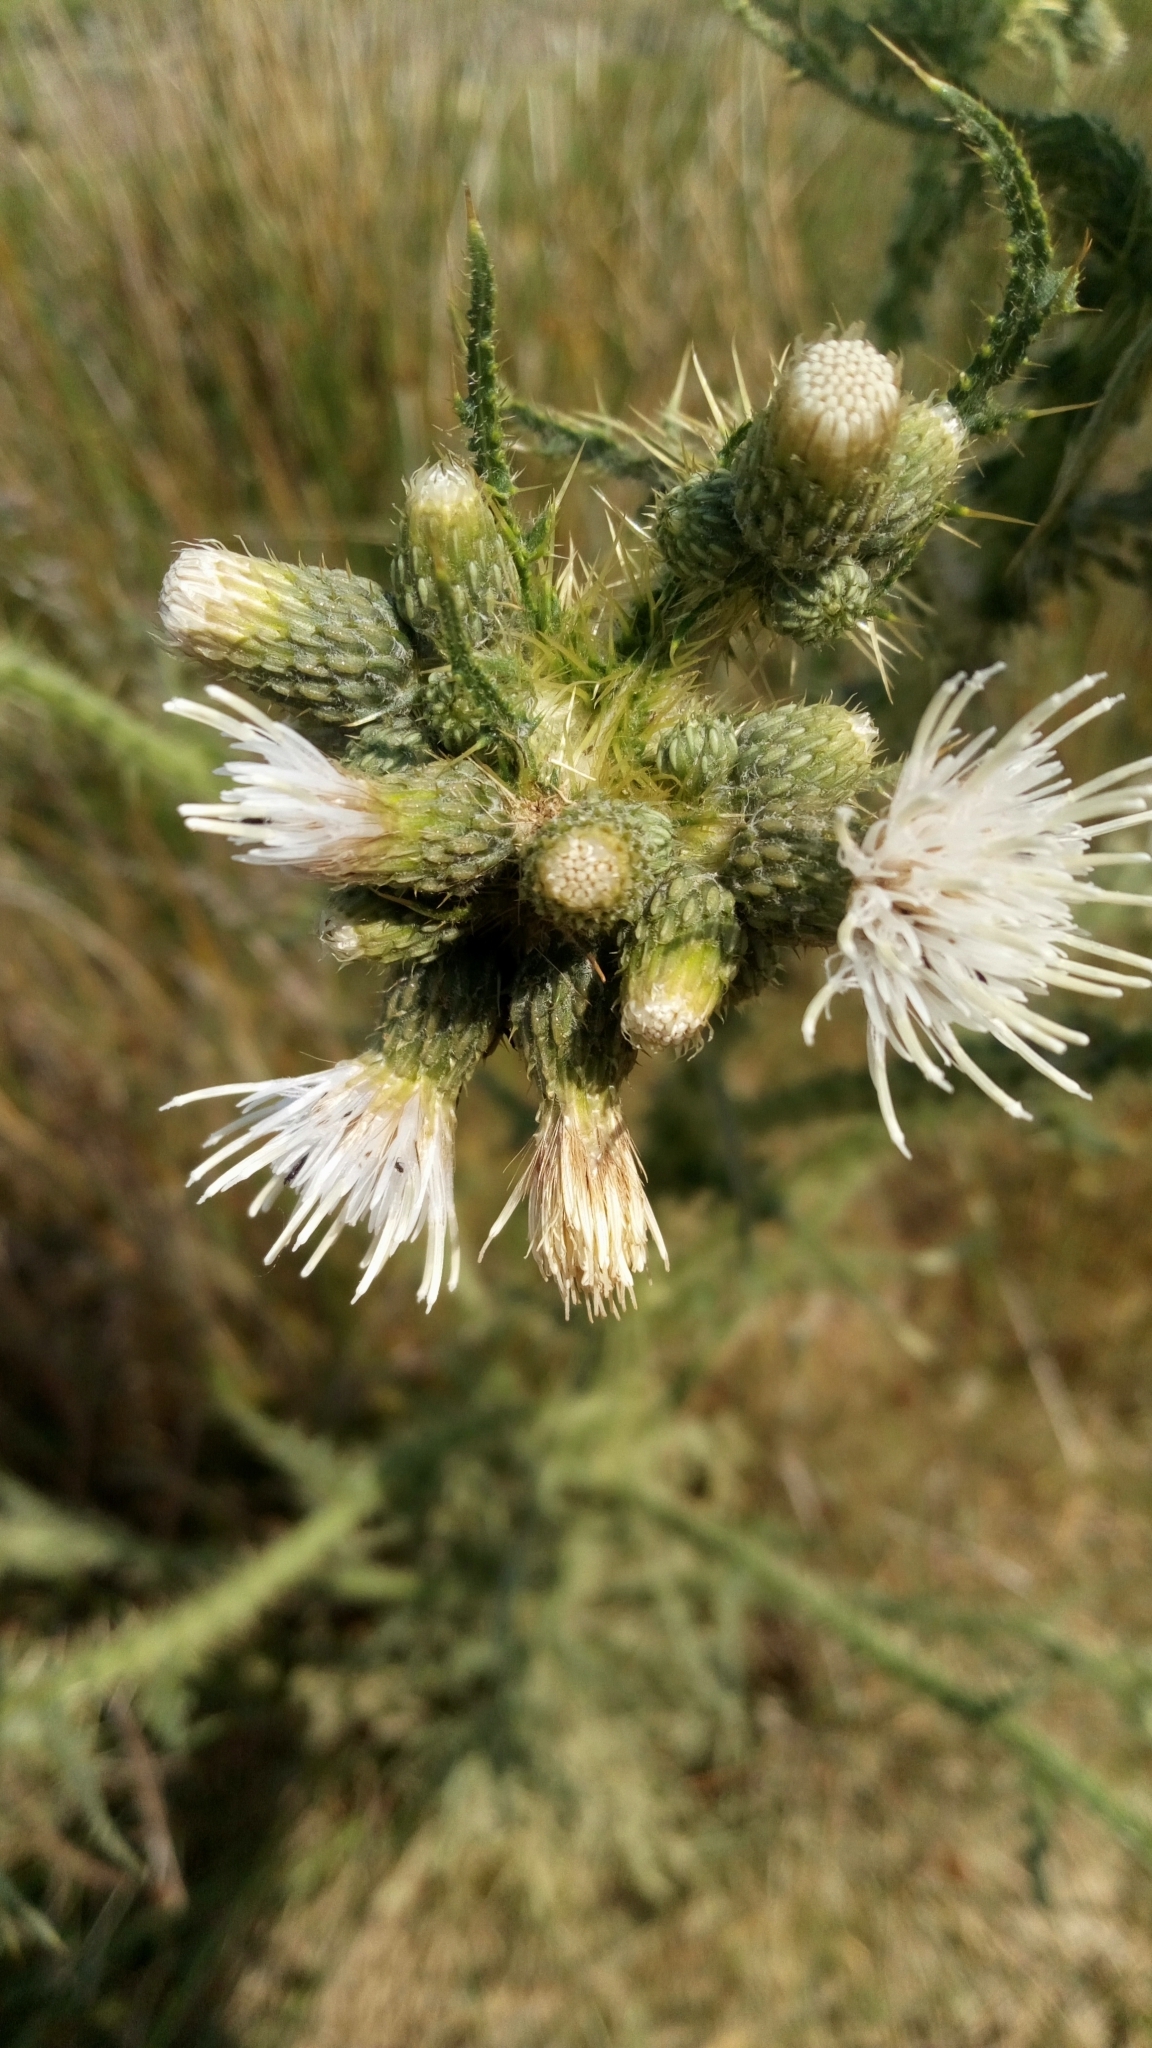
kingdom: Plantae
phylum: Tracheophyta
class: Magnoliopsida
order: Asterales
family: Asteraceae
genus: Cirsium
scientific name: Cirsium palustre
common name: Marsh thistle
